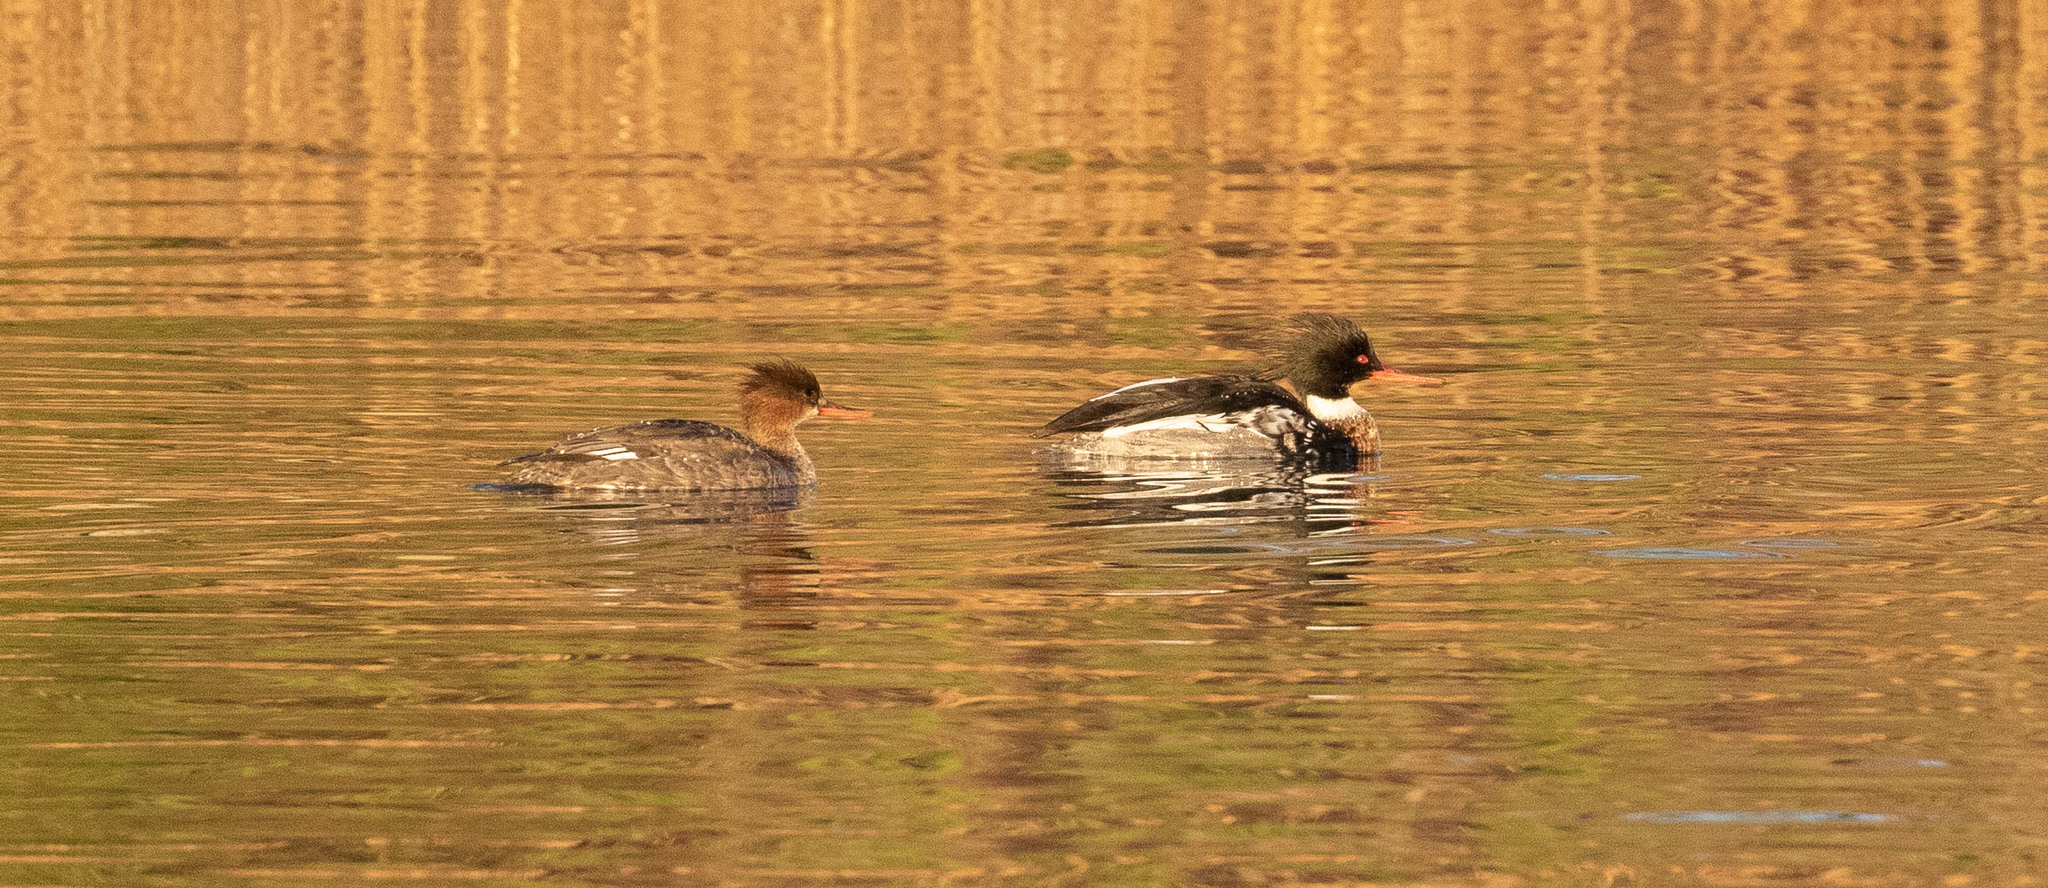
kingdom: Animalia
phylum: Chordata
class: Aves
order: Anseriformes
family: Anatidae
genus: Mergus
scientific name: Mergus serrator
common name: Red-breasted merganser
